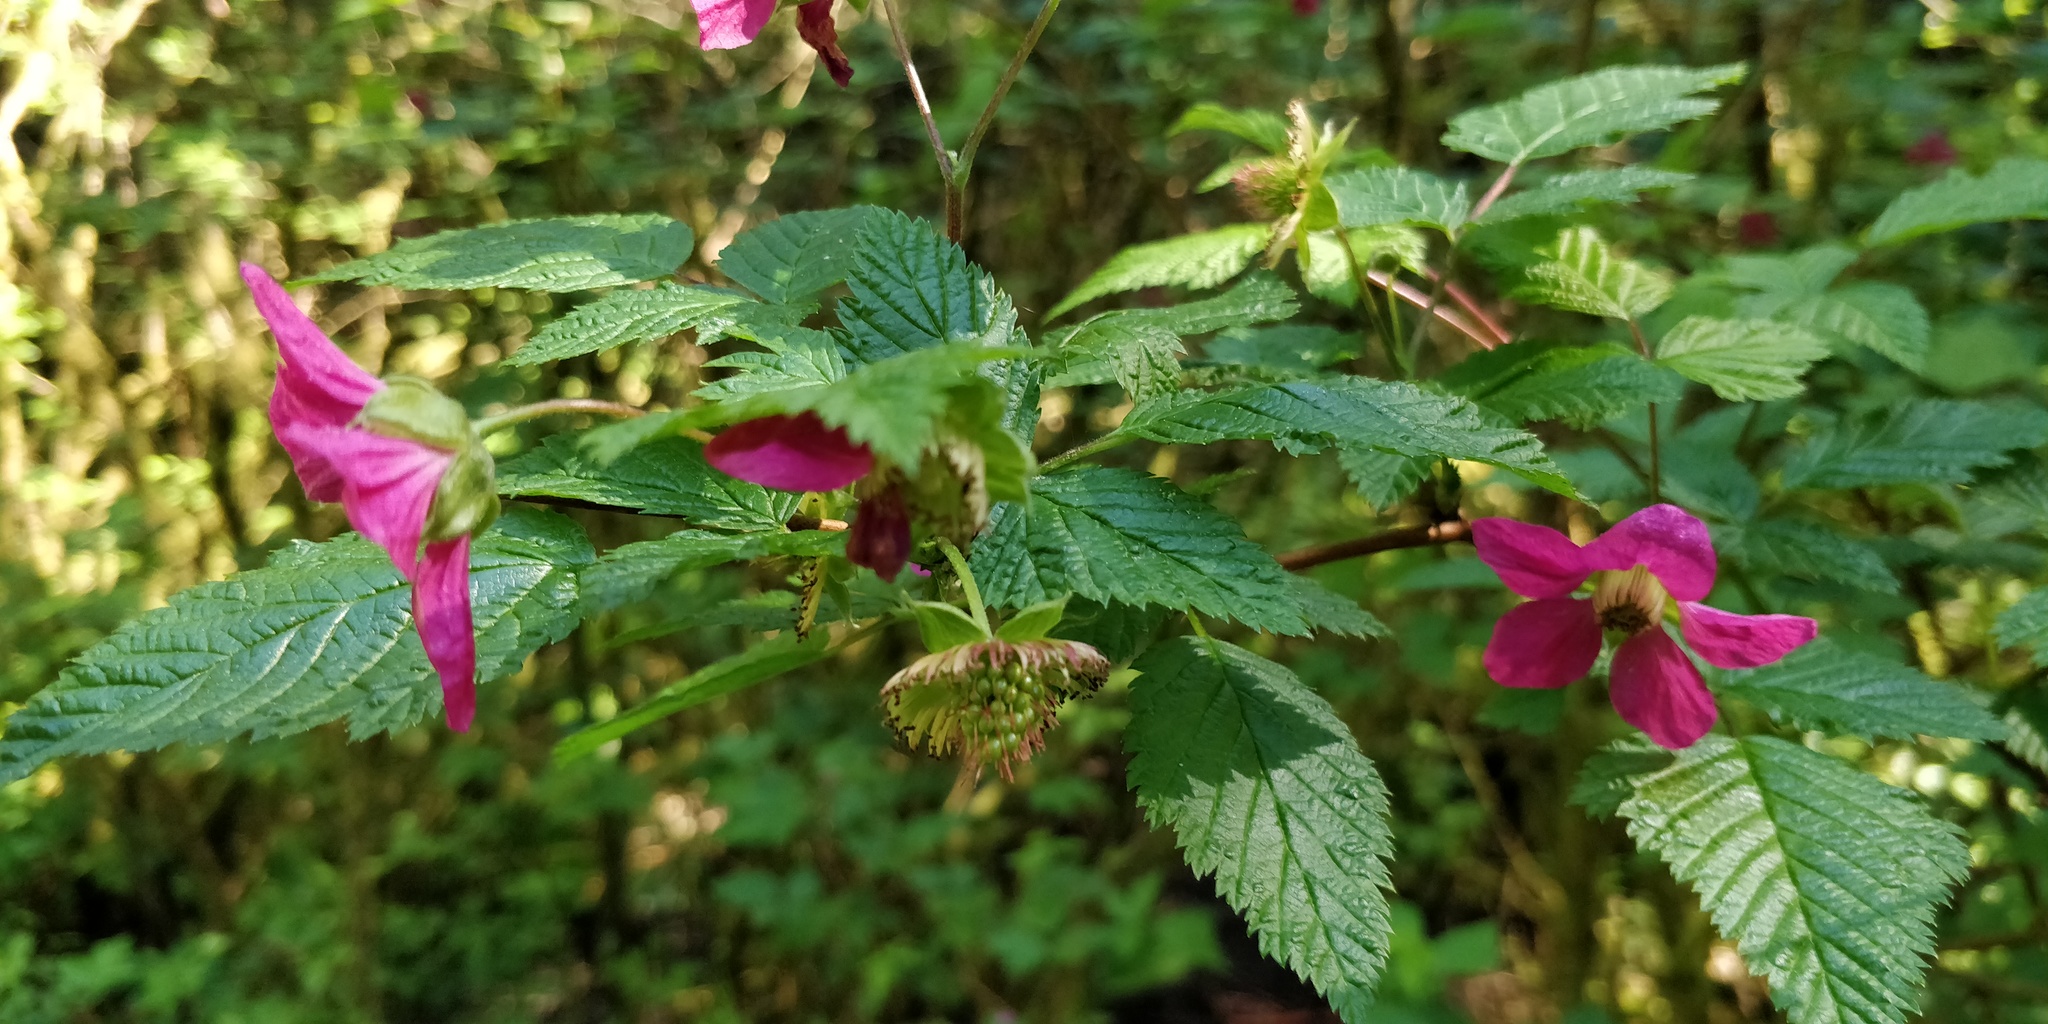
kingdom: Plantae
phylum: Tracheophyta
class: Magnoliopsida
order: Rosales
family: Rosaceae
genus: Rubus
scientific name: Rubus spectabilis
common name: Salmonberry
